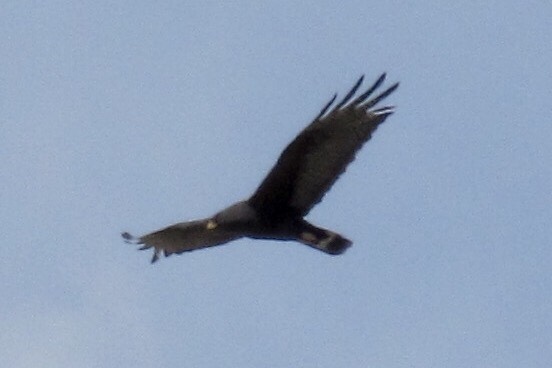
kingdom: Animalia
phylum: Chordata
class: Aves
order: Accipitriformes
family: Accipitridae
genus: Buteo
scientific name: Buteo albonotatus
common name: Zone-tailed hawk
